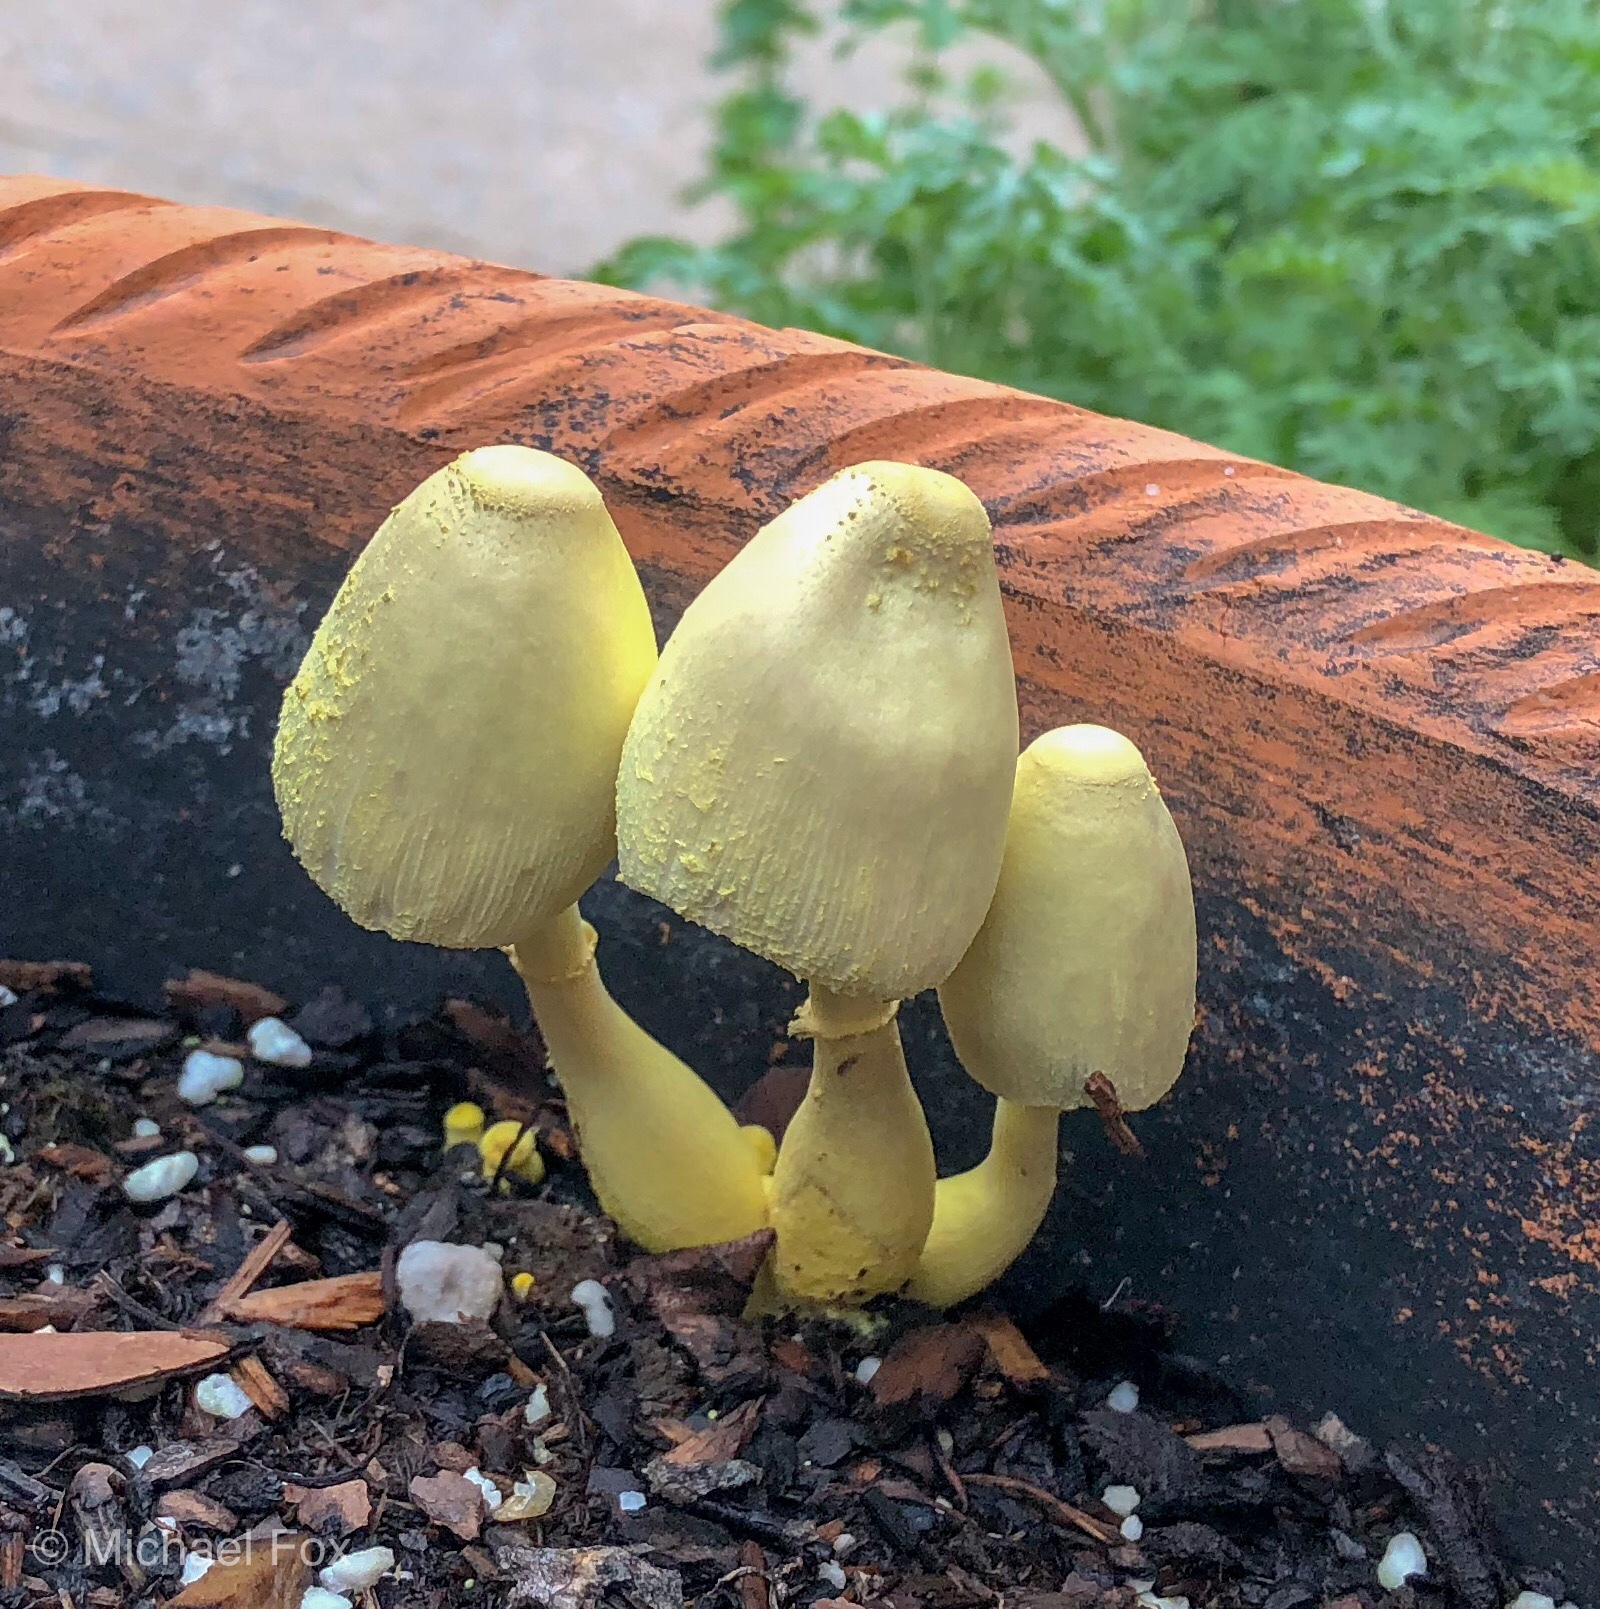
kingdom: Fungi
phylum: Basidiomycota
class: Agaricomycetes
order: Agaricales
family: Agaricaceae
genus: Leucocoprinus
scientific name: Leucocoprinus birnbaumii
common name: Plantpot dapperling
